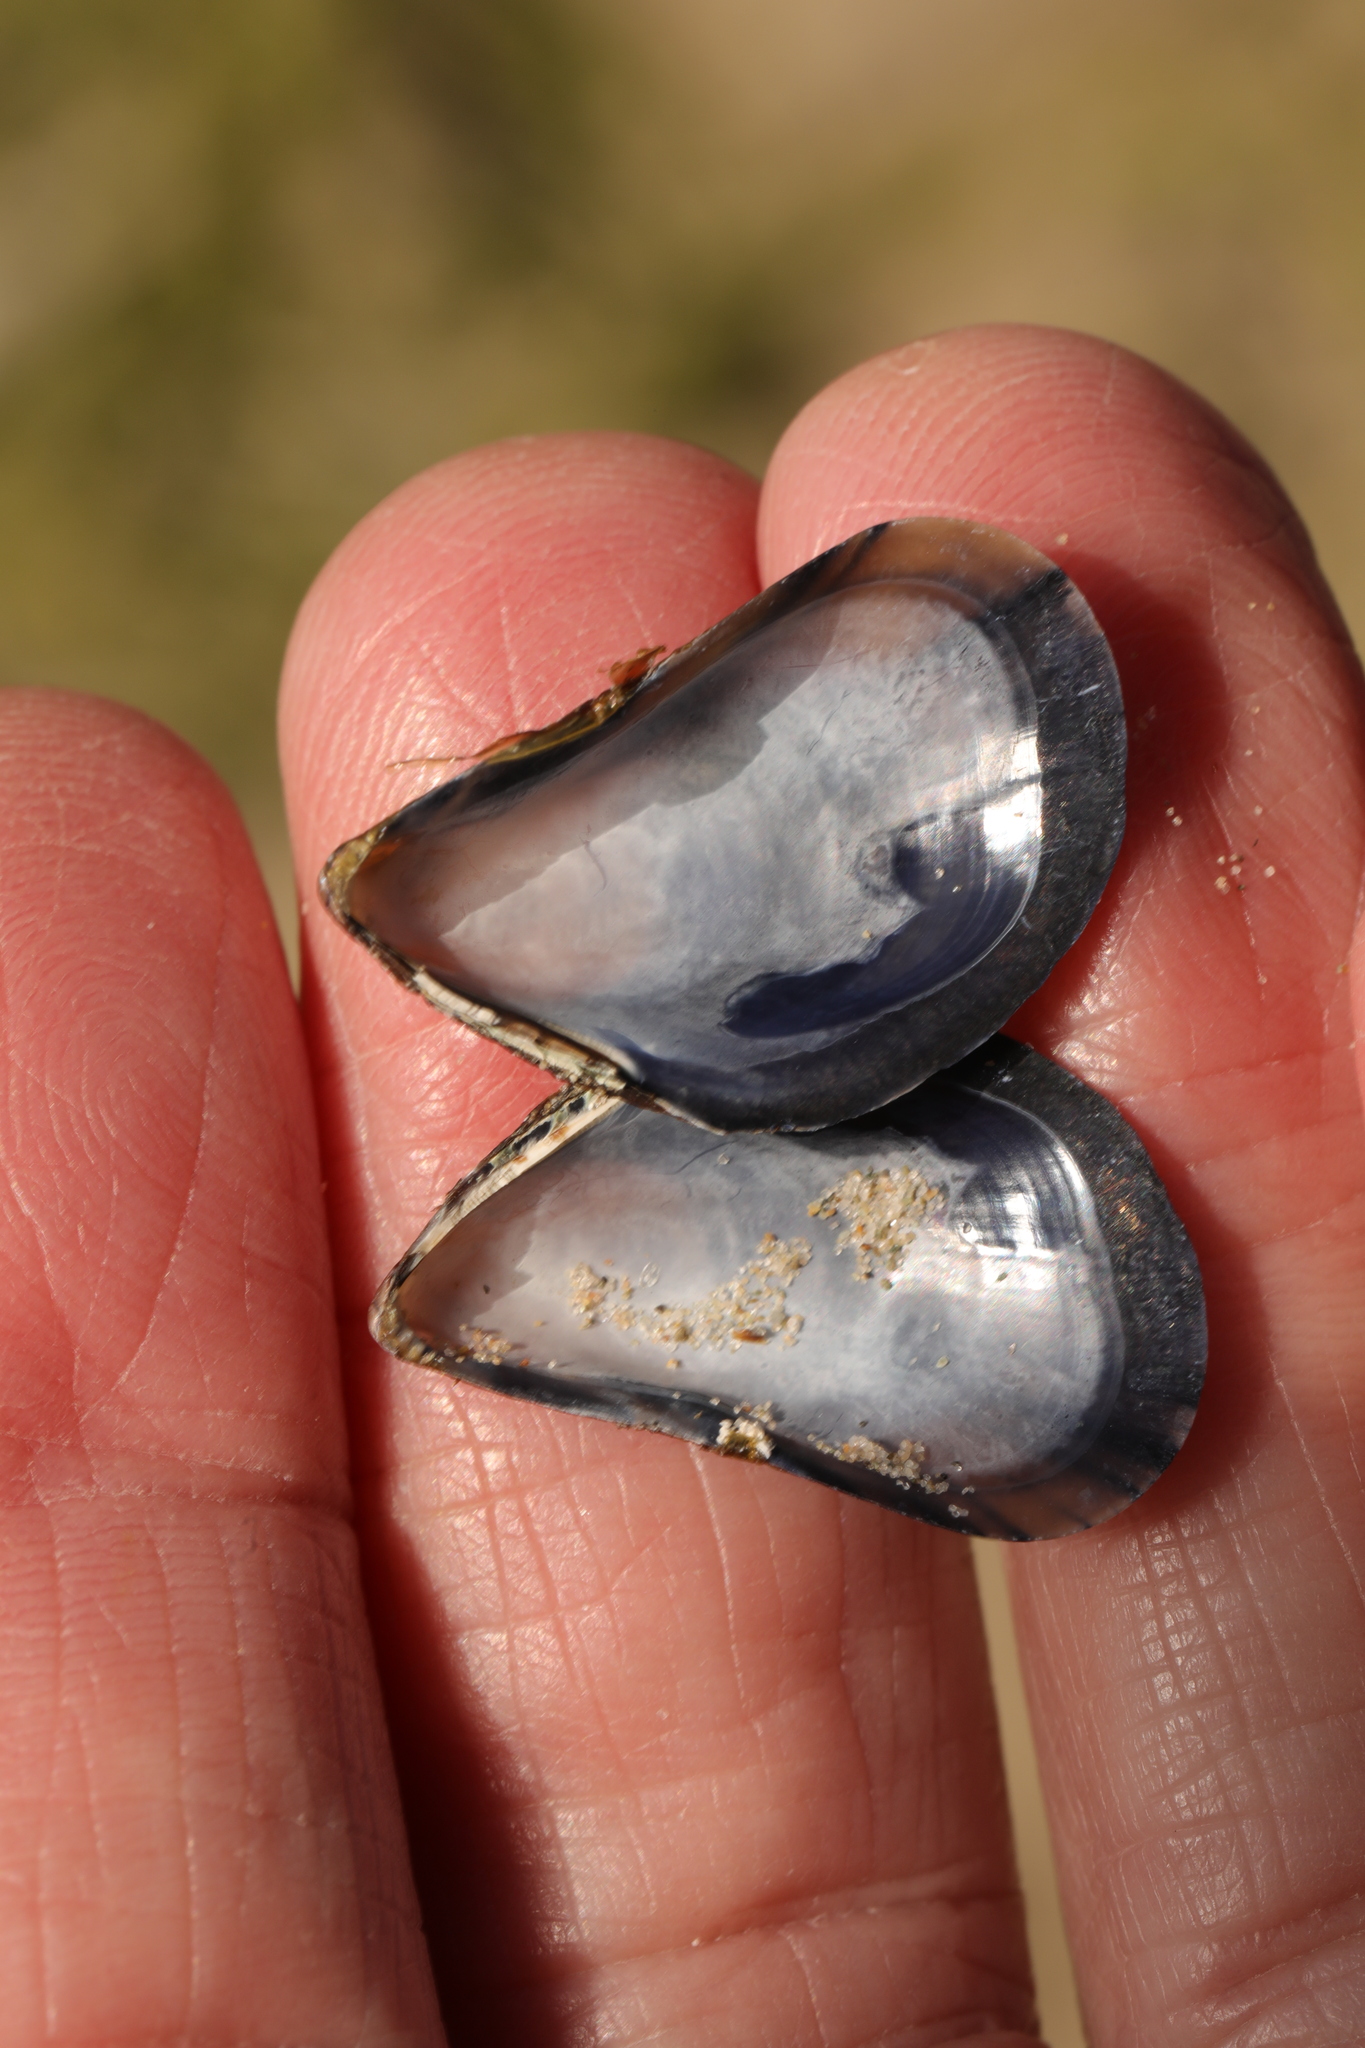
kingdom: Animalia
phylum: Mollusca
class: Bivalvia
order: Mytilida
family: Mytilidae
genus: Mytilus
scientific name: Mytilus edulis
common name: Blue mussel
